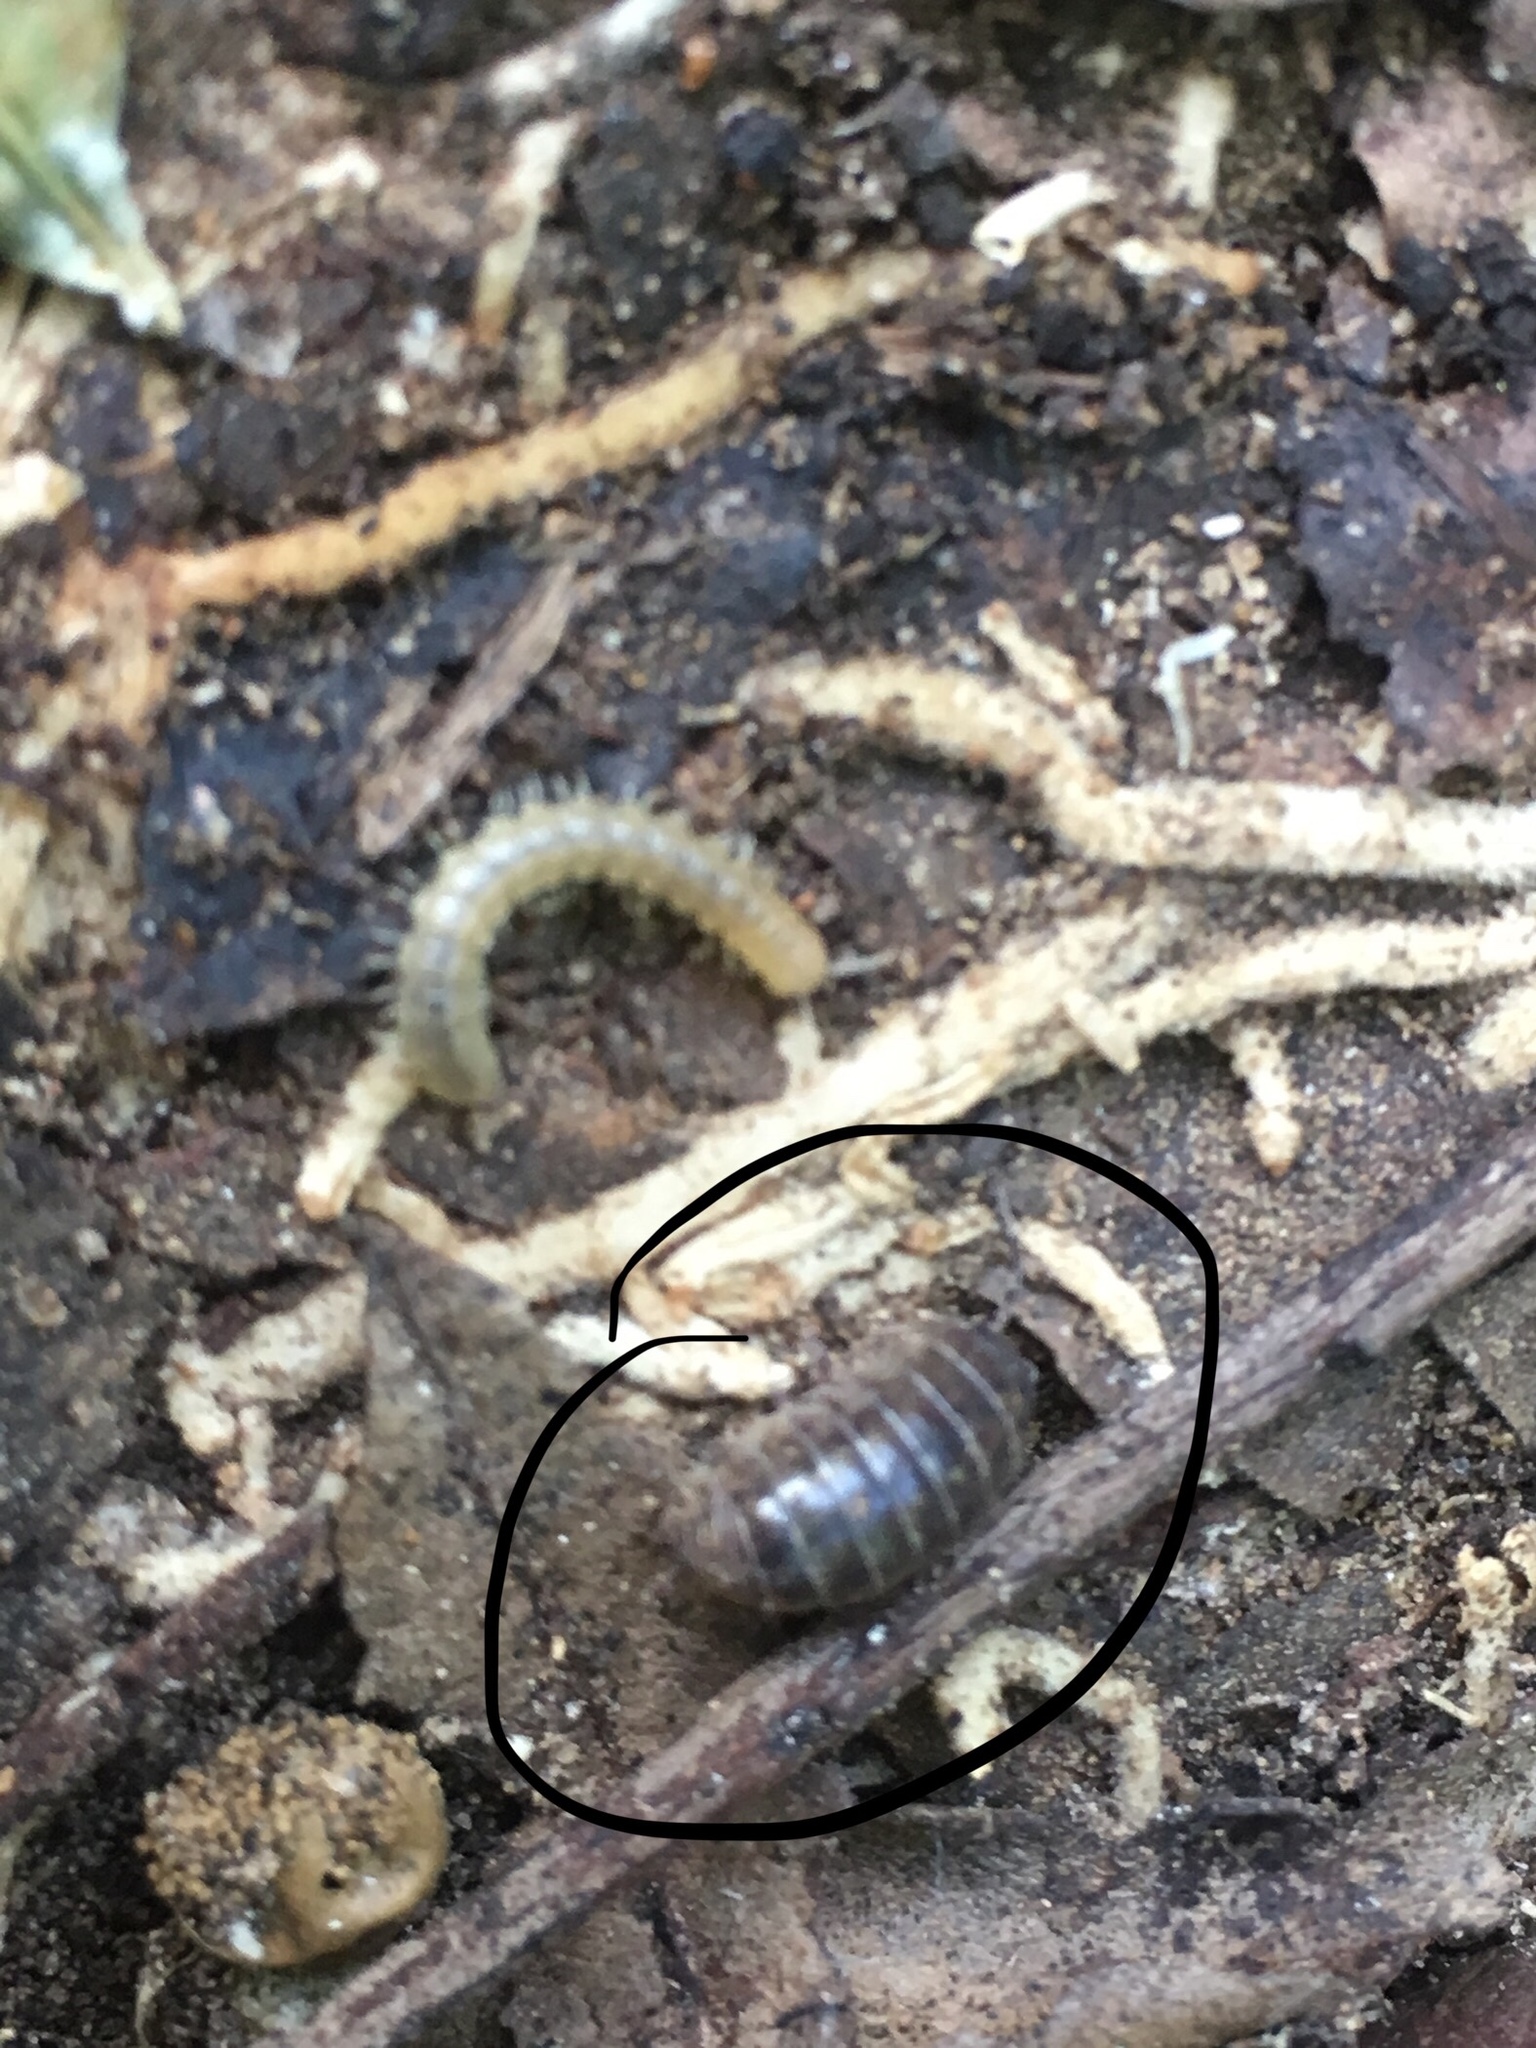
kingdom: Animalia
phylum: Arthropoda
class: Malacostraca
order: Isopoda
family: Armadillidiidae
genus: Armadillidium
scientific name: Armadillidium vulgare
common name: Common pill woodlouse
